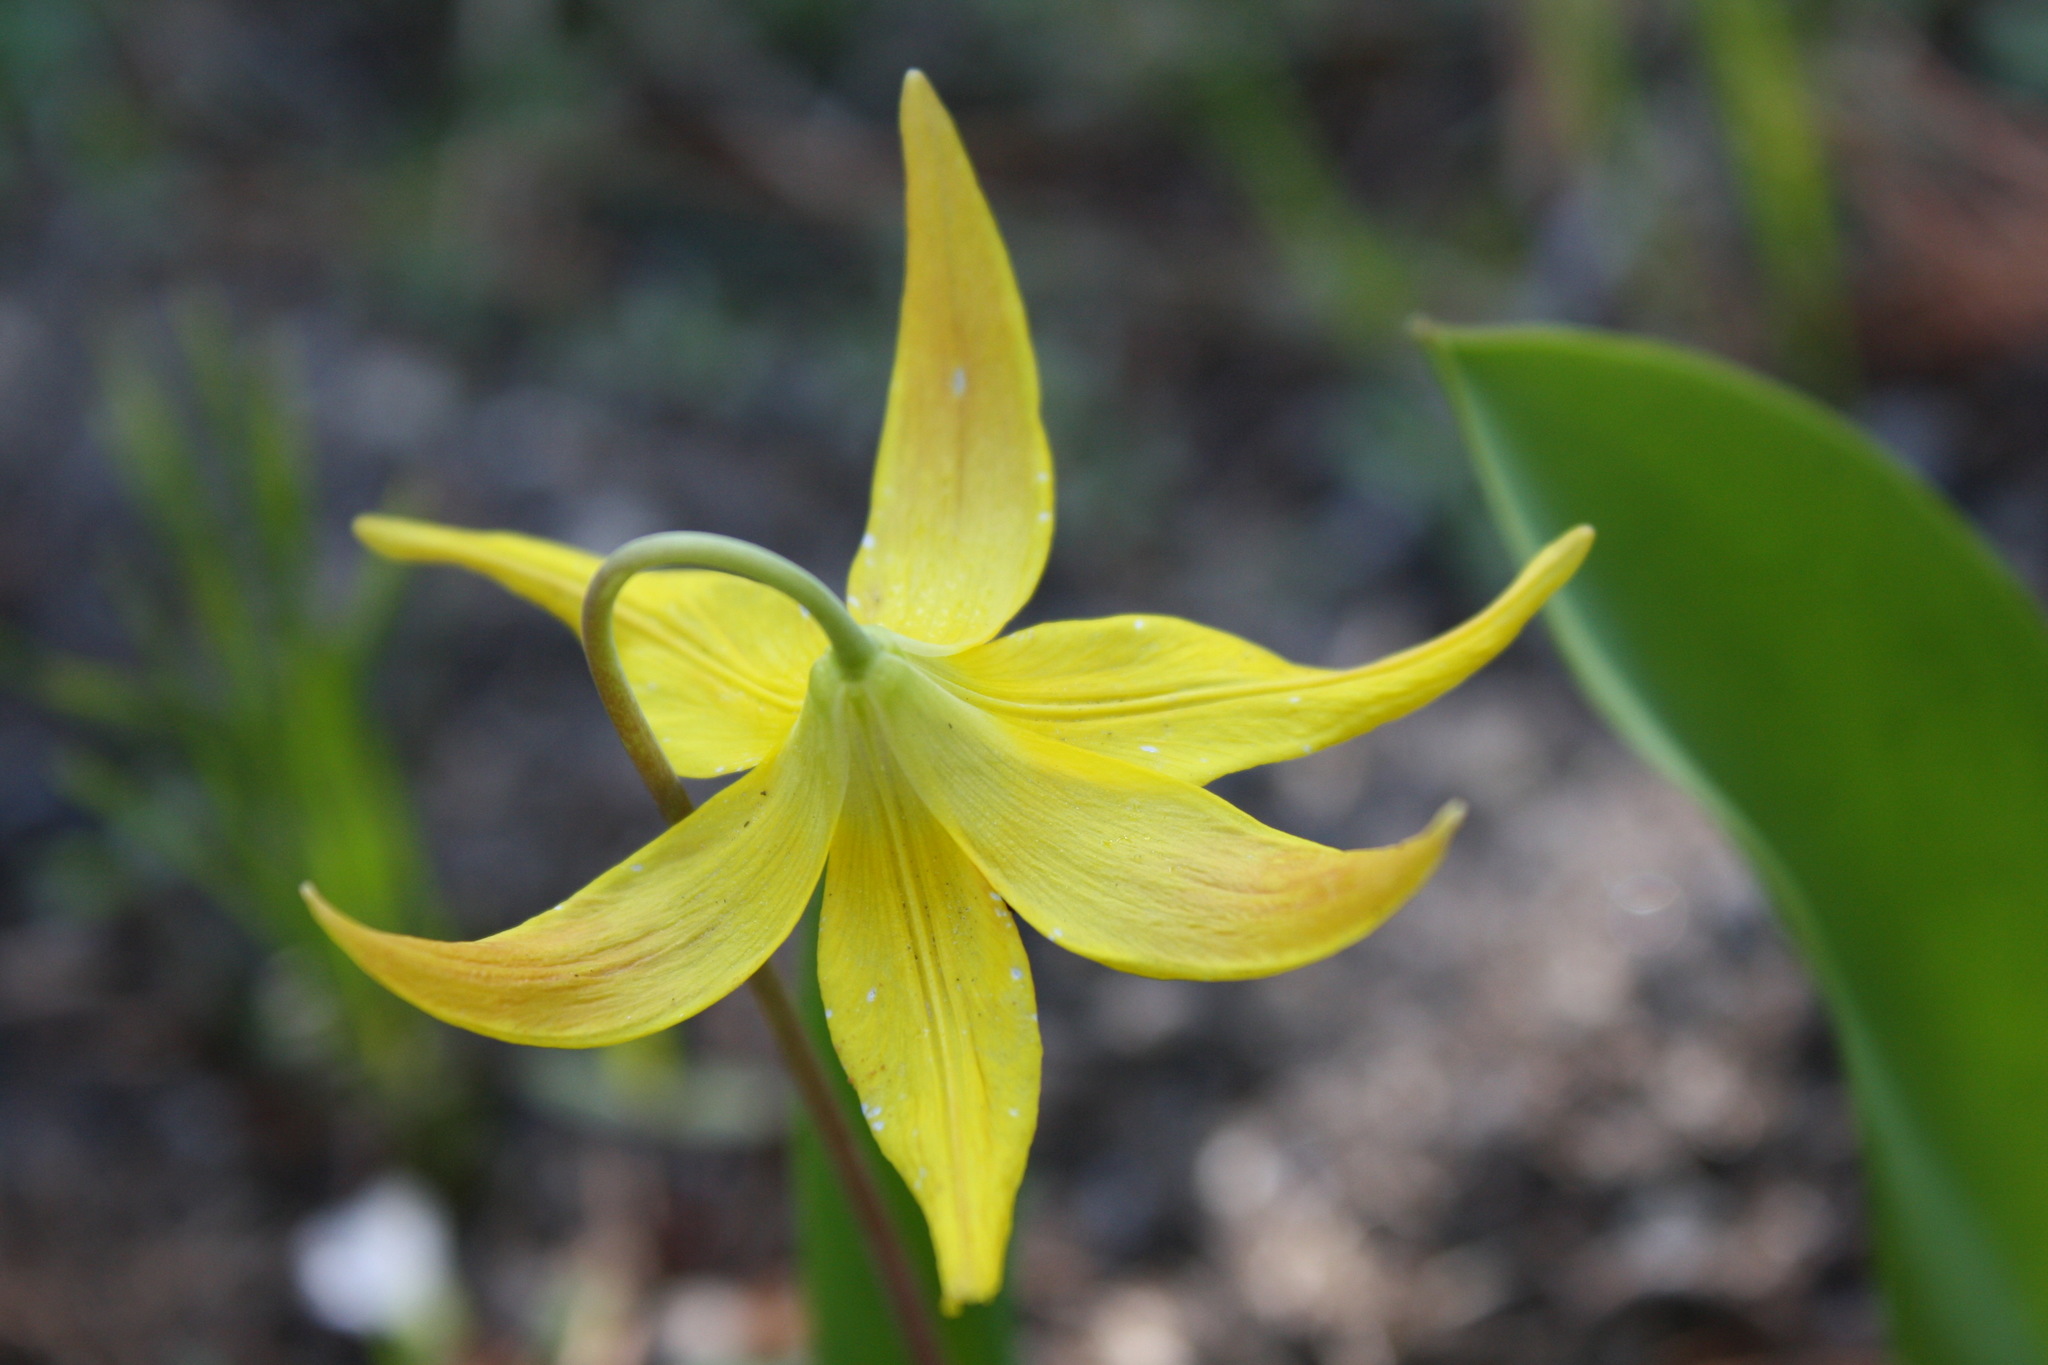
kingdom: Plantae
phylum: Tracheophyta
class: Liliopsida
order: Liliales
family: Liliaceae
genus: Erythronium
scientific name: Erythronium grandiflorum
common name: Avalanche-lily
